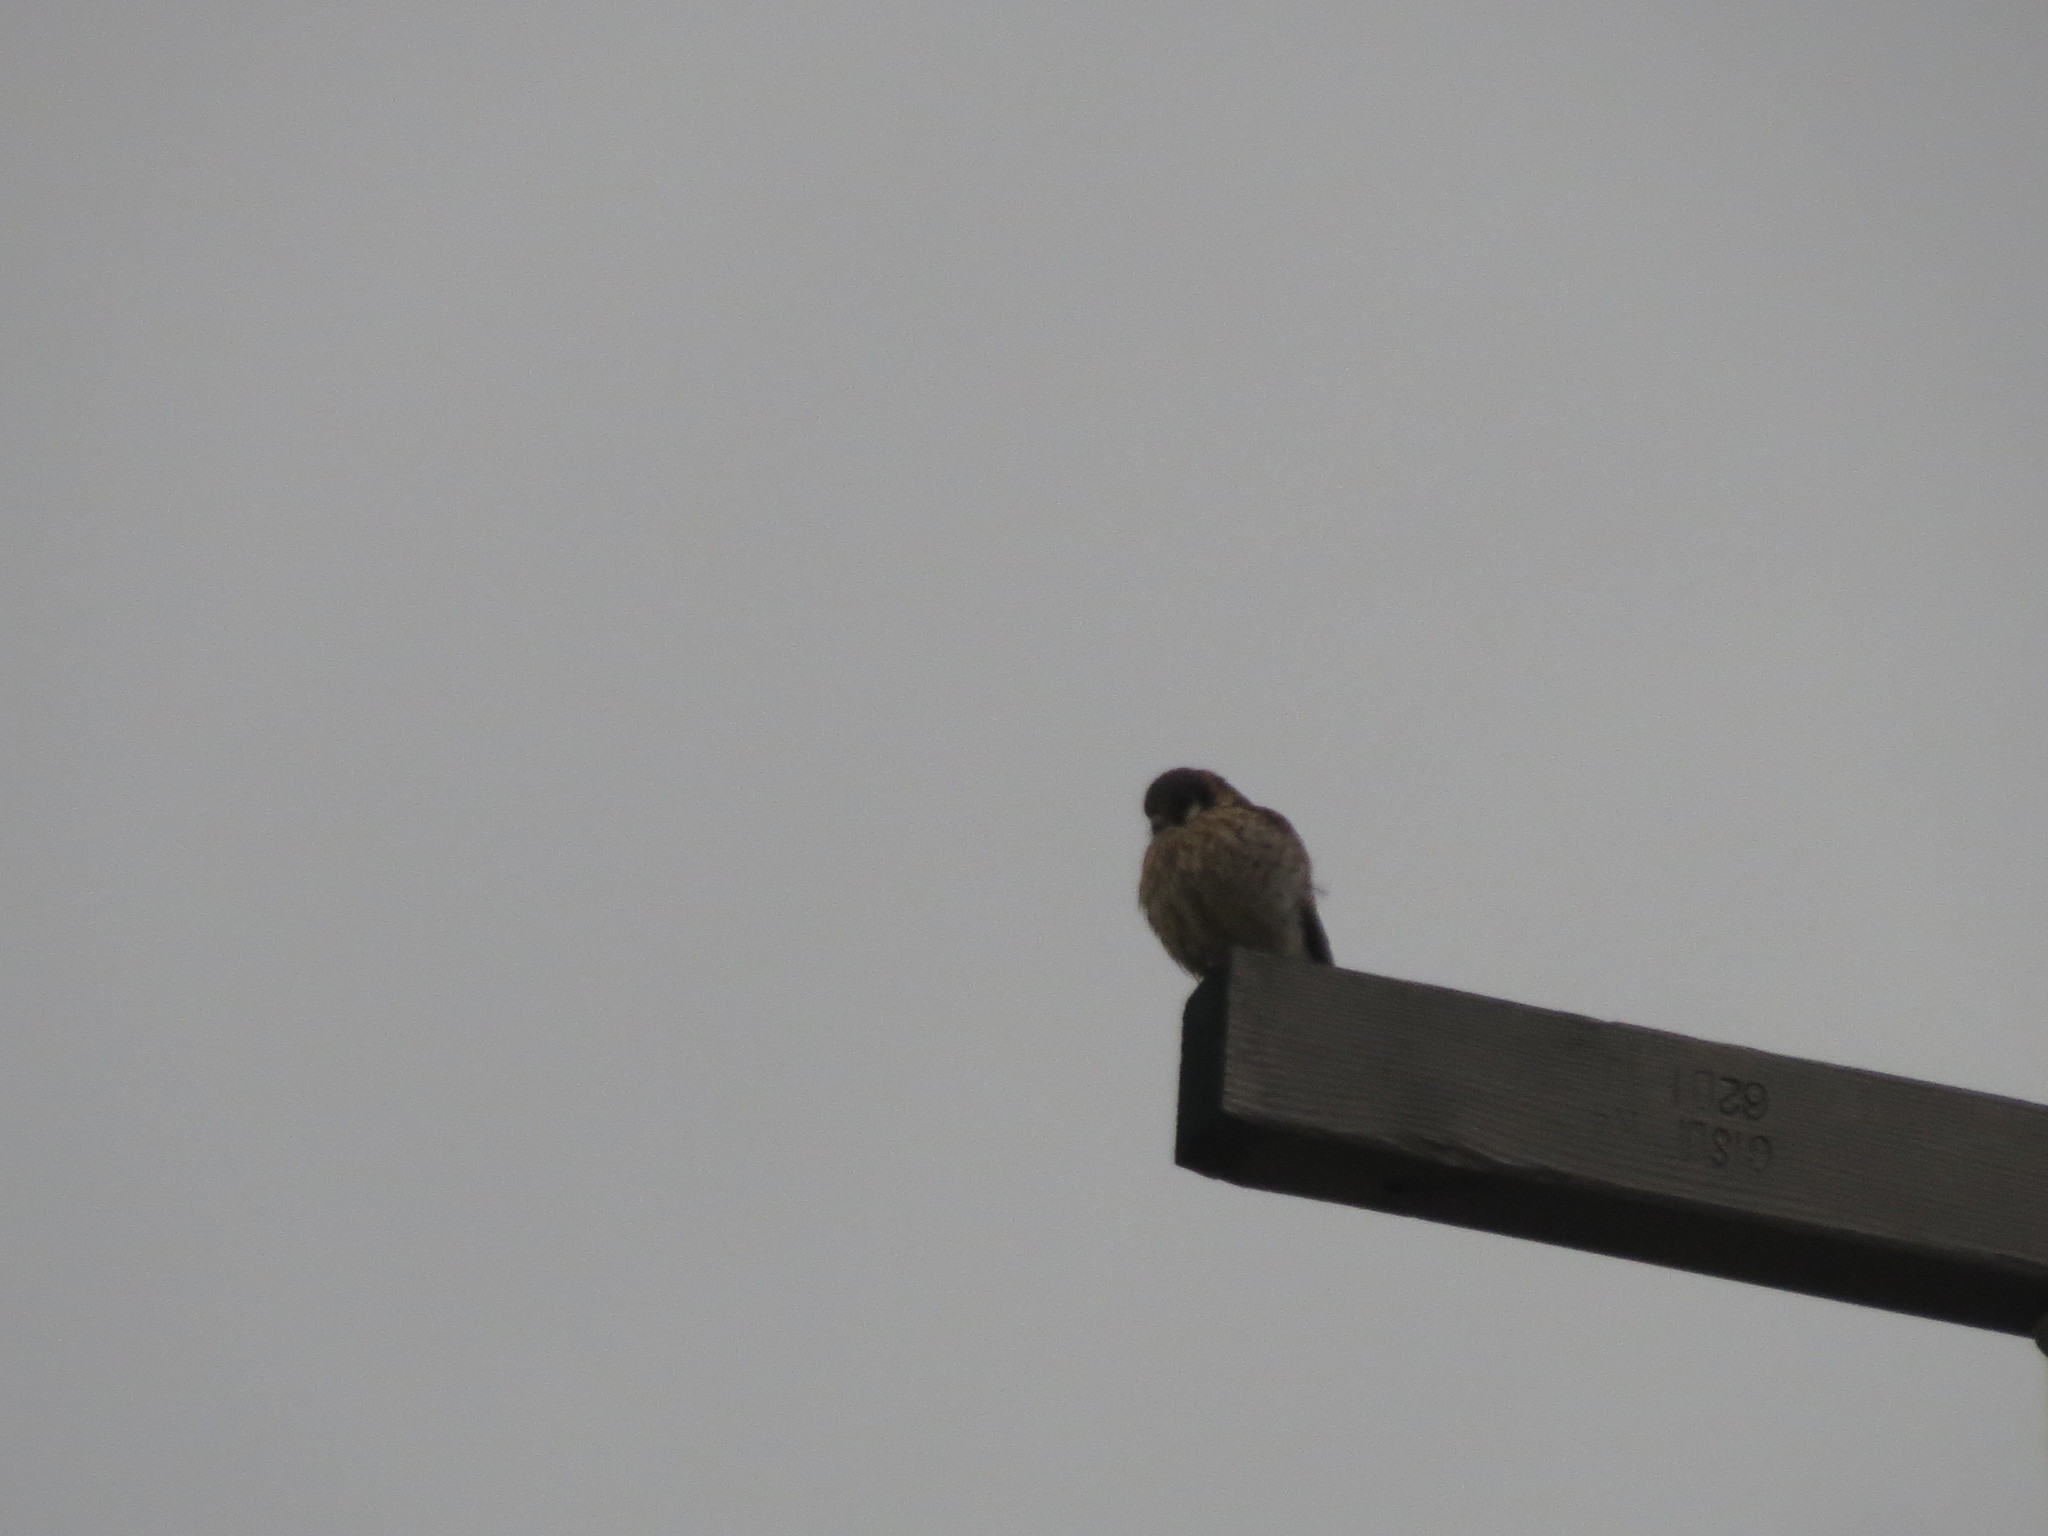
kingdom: Animalia
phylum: Chordata
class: Aves
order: Falconiformes
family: Falconidae
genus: Falco
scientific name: Falco sparverius
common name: American kestrel
